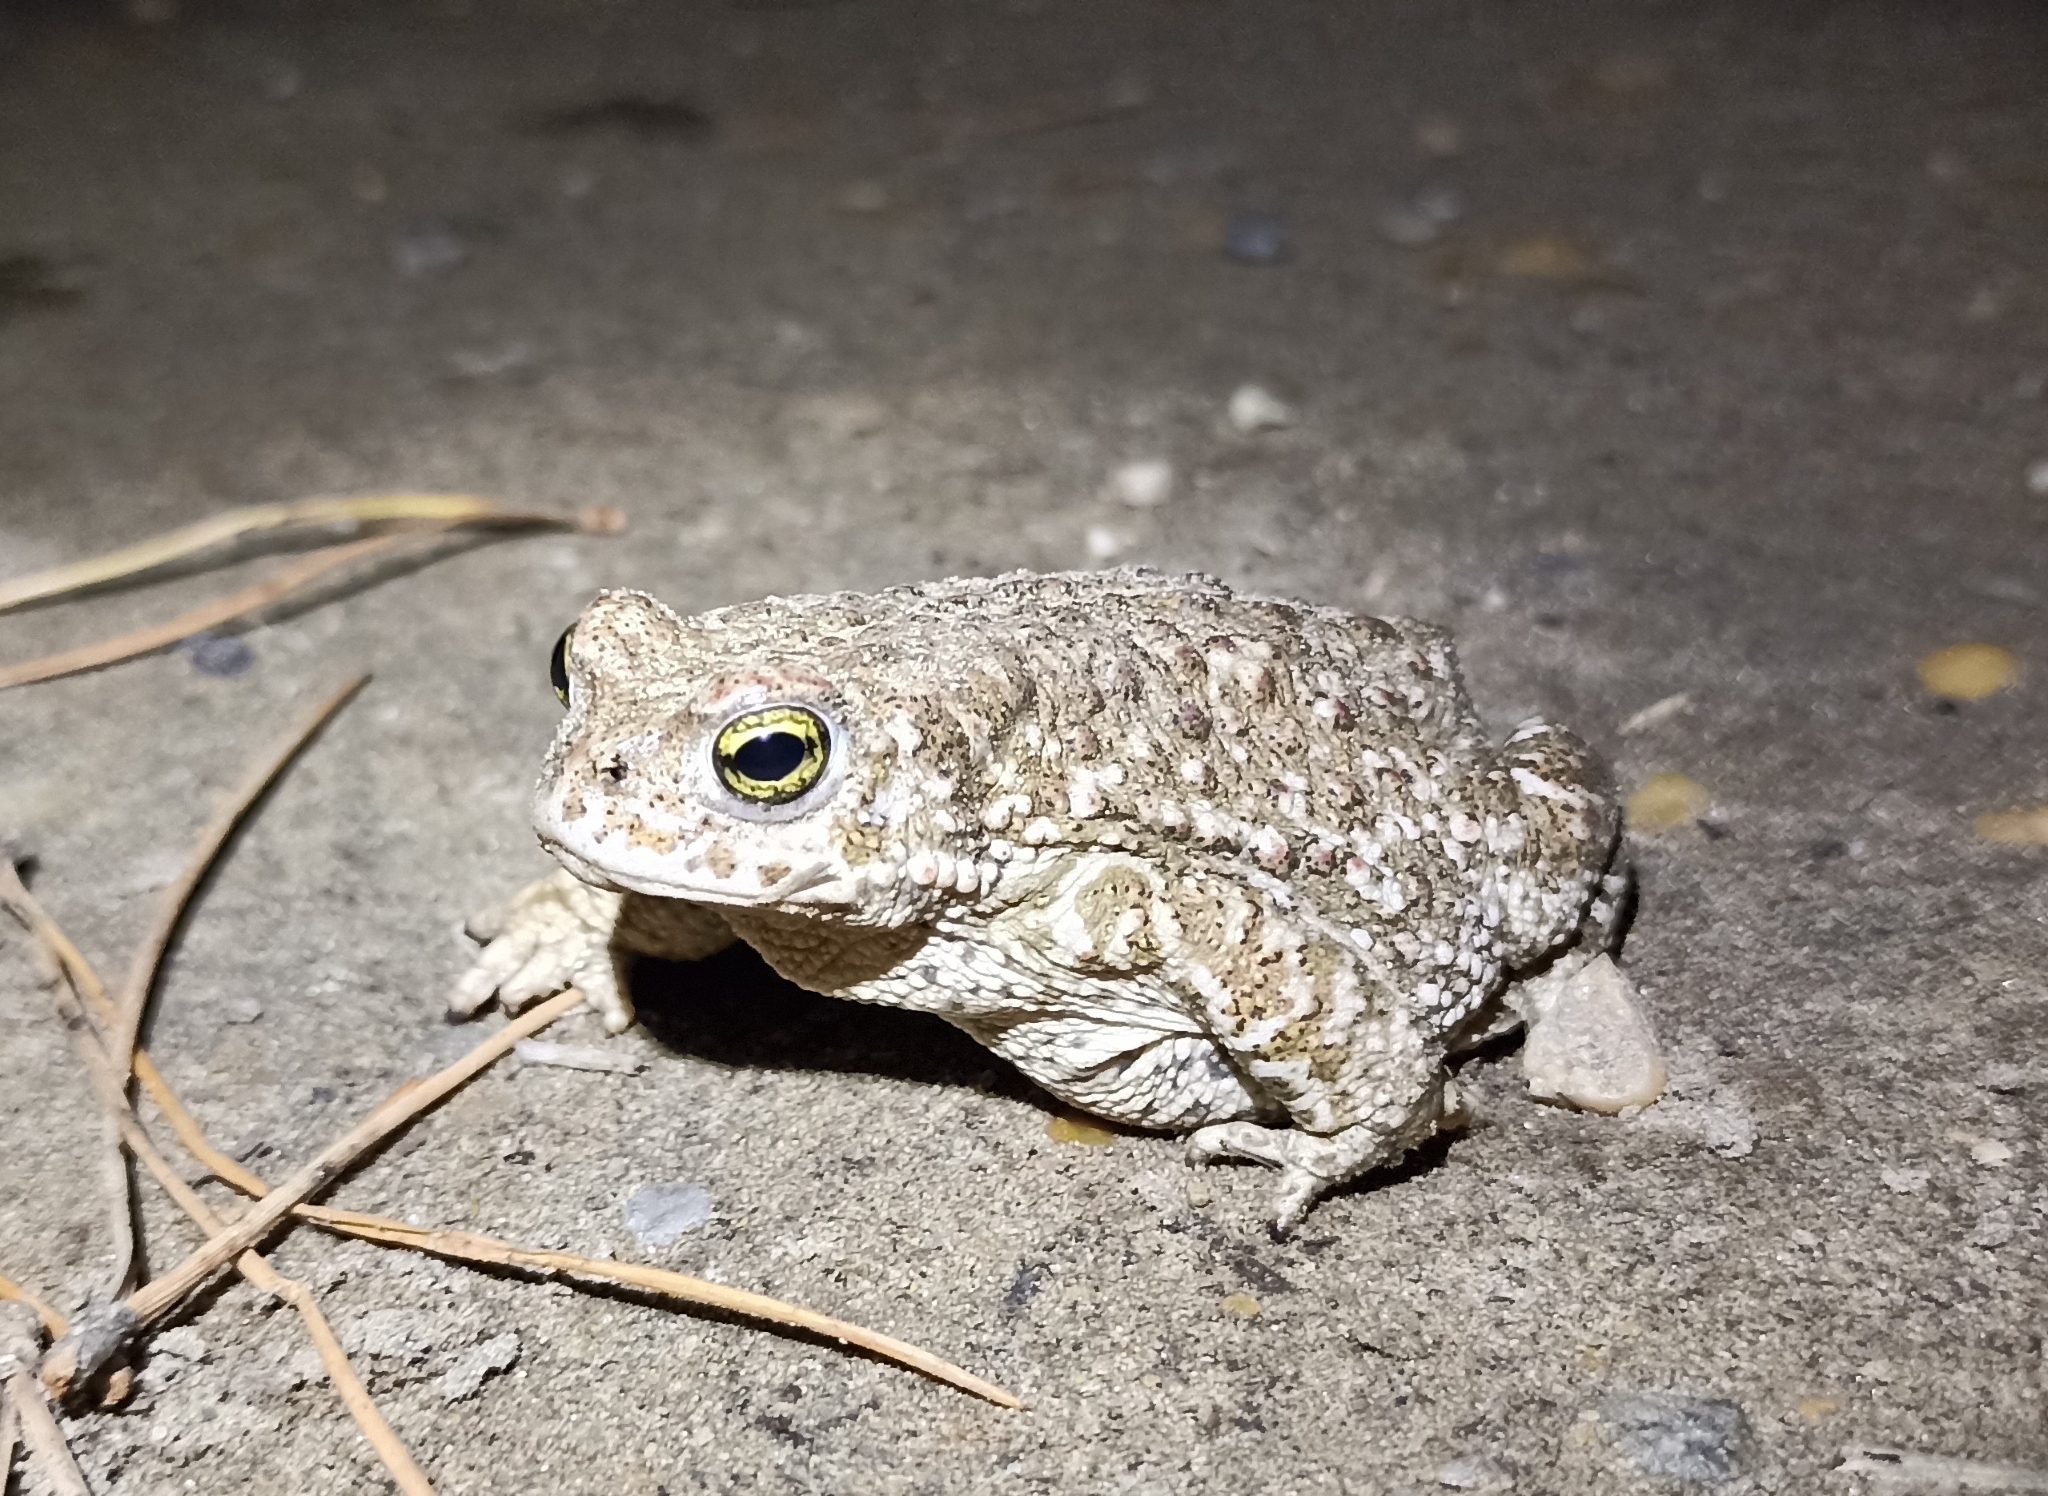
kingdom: Animalia
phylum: Chordata
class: Amphibia
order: Anura
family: Bufonidae
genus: Epidalea
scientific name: Epidalea calamita
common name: Natterjack toad
